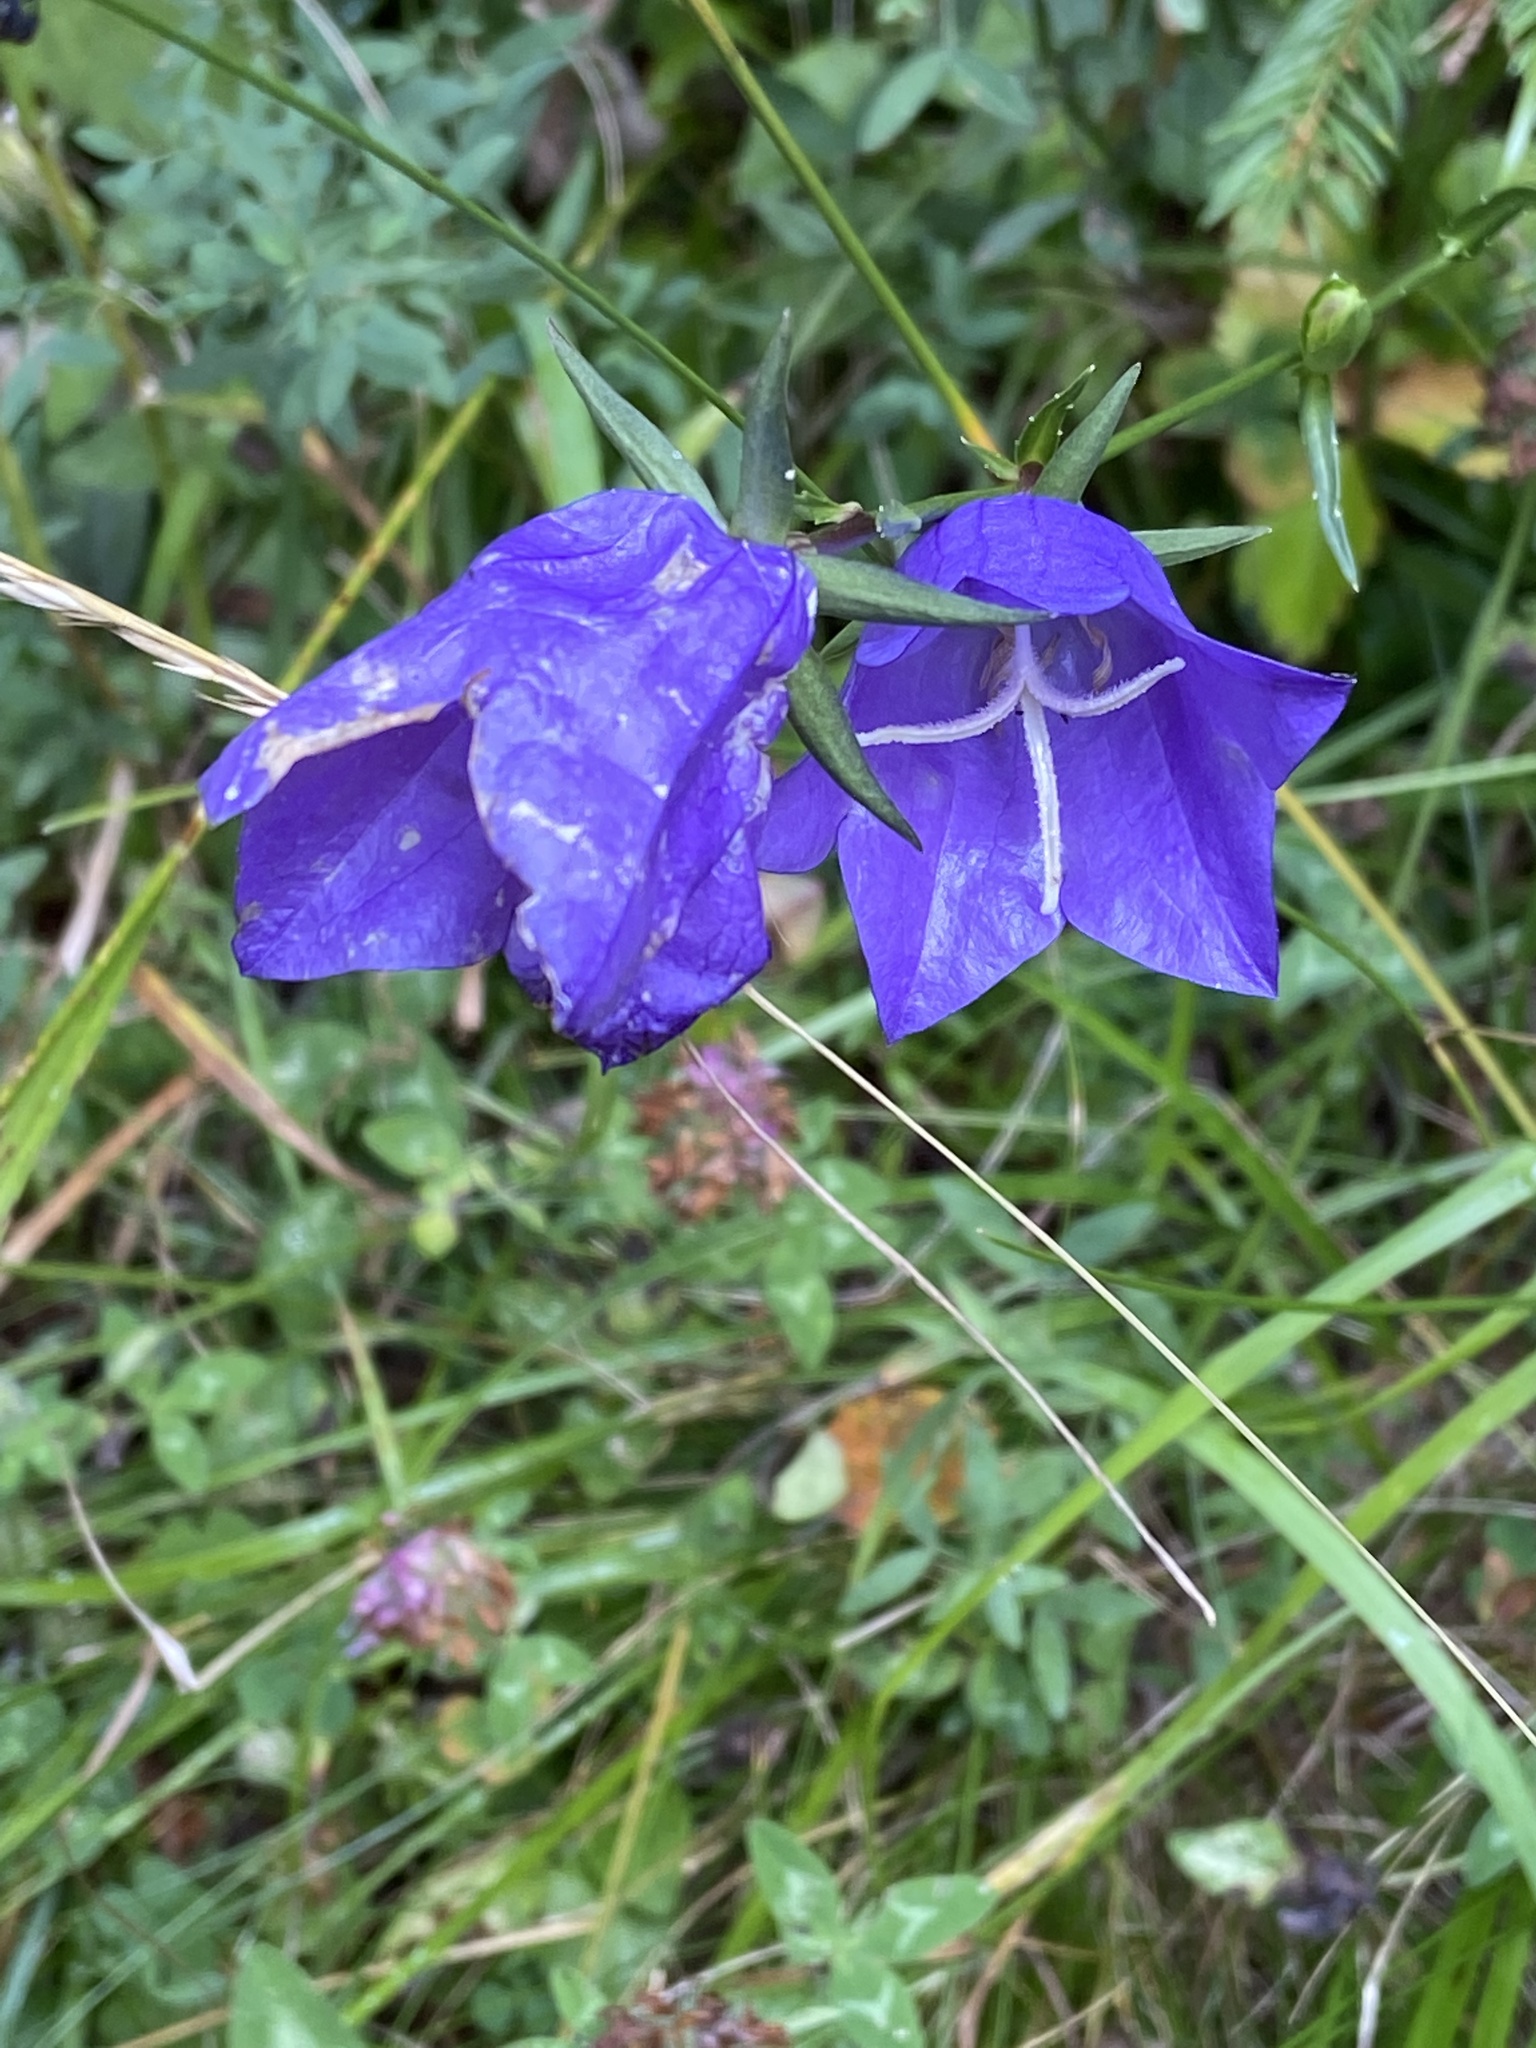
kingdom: Plantae
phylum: Tracheophyta
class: Magnoliopsida
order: Asterales
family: Campanulaceae
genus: Campanula
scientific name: Campanula persicifolia
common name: Peach-leaved bellflower
